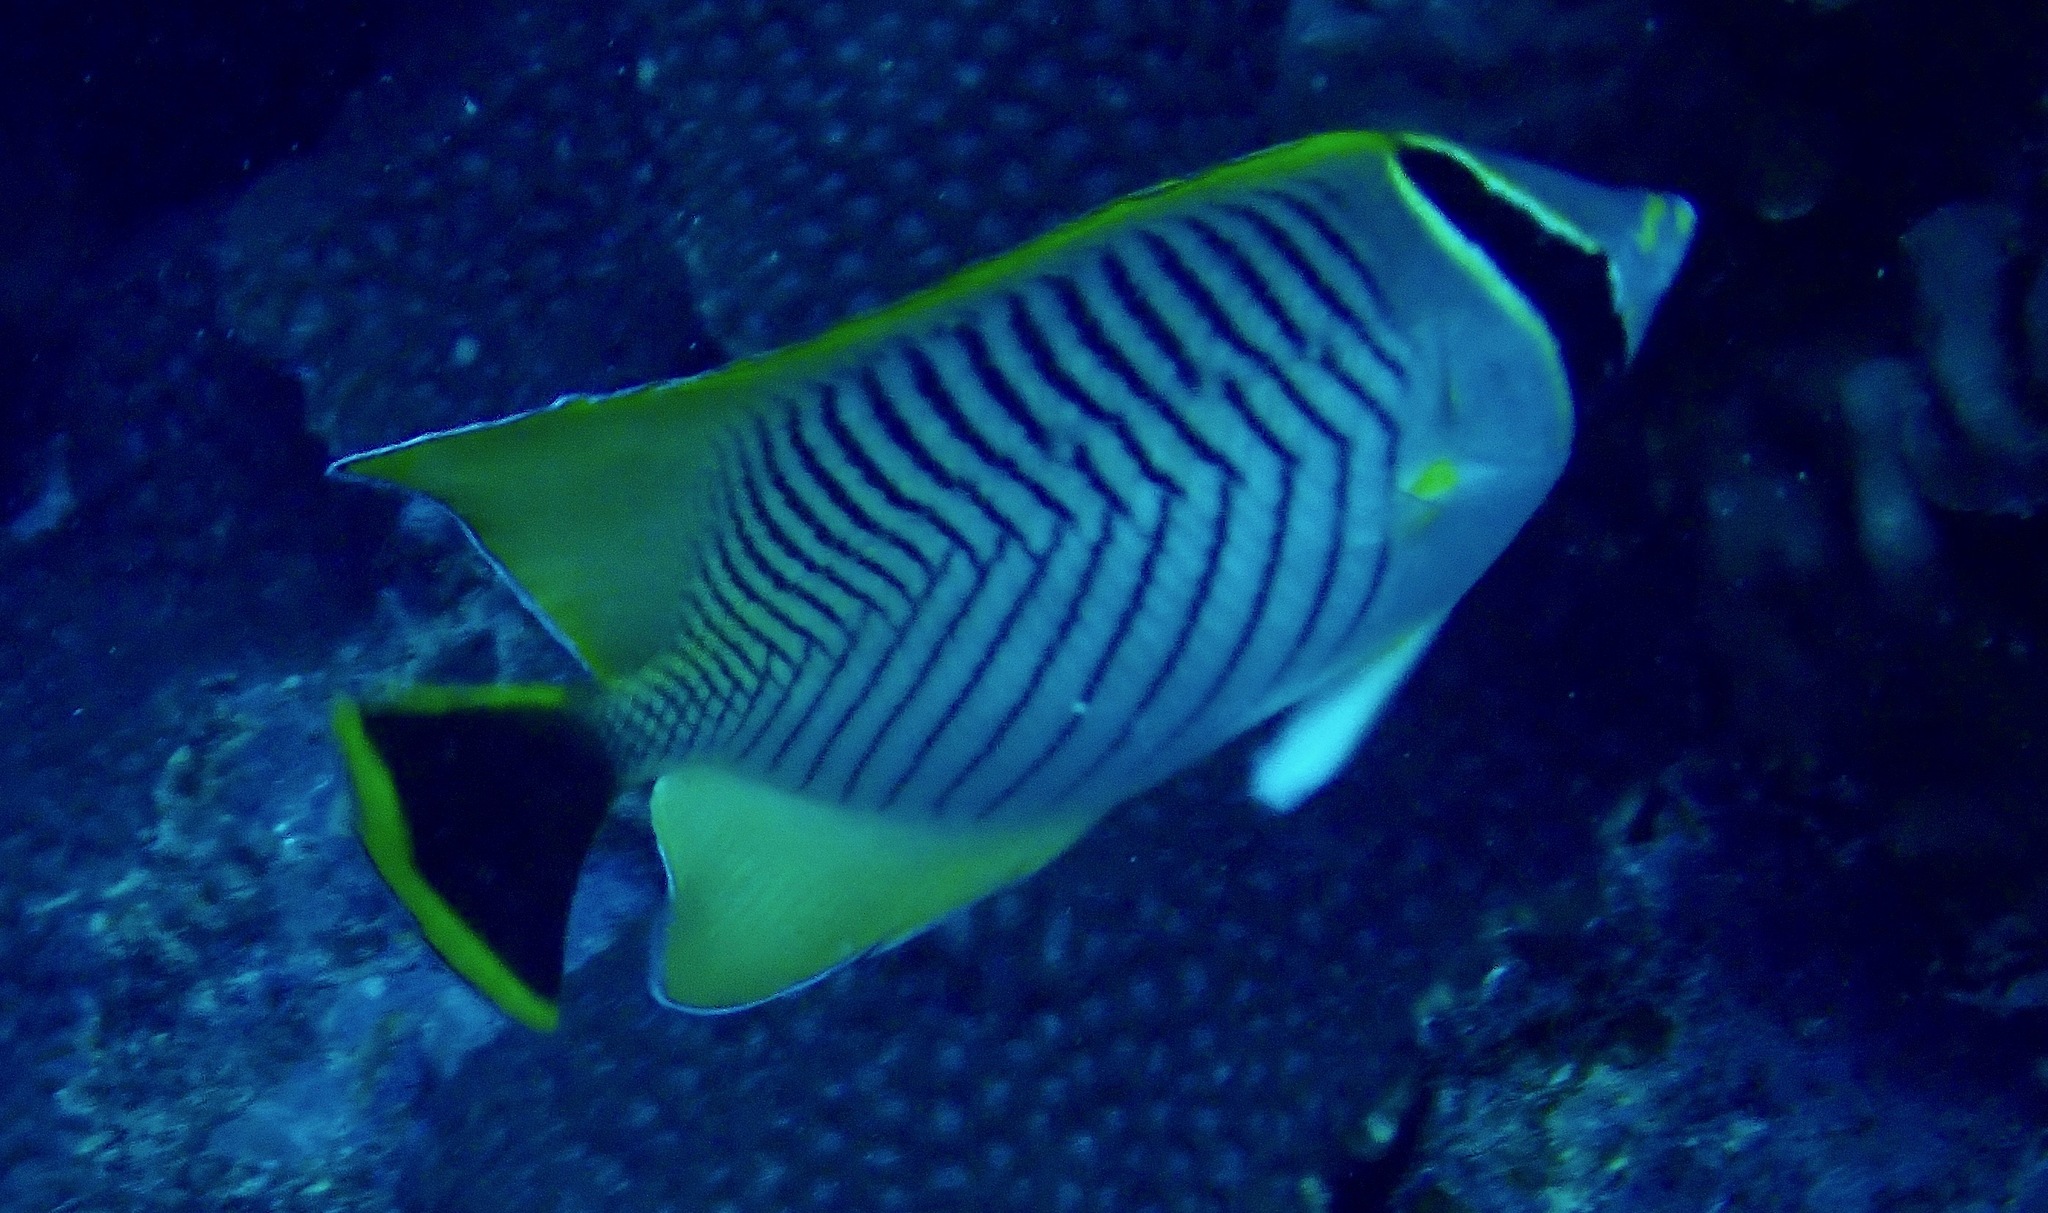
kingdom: Animalia
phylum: Chordata
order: Perciformes
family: Chaetodontidae
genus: Chaetodon
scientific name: Chaetodon trifascialis
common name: Chevroned butterflyfish
